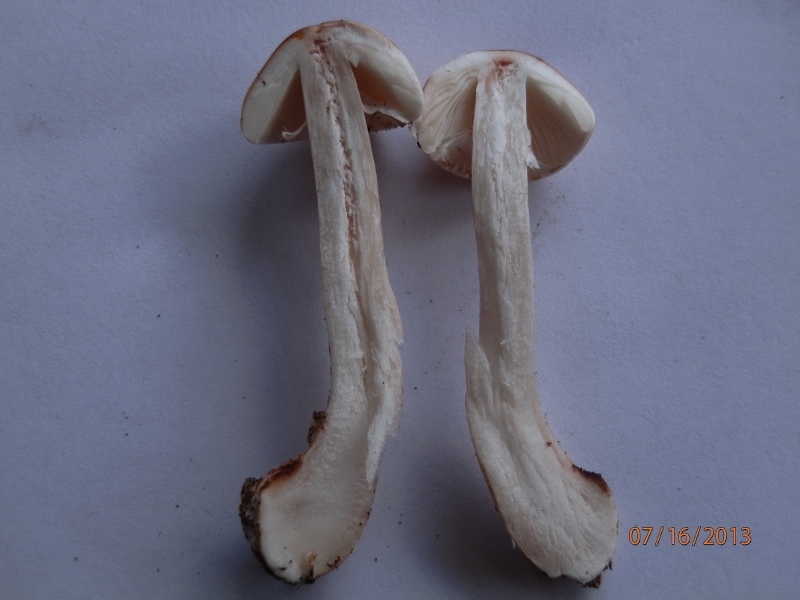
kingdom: Fungi
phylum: Basidiomycota
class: Agaricomycetes
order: Agaricales
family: Amanitaceae
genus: Amanita
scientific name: Amanita rubescens
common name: Blusher
